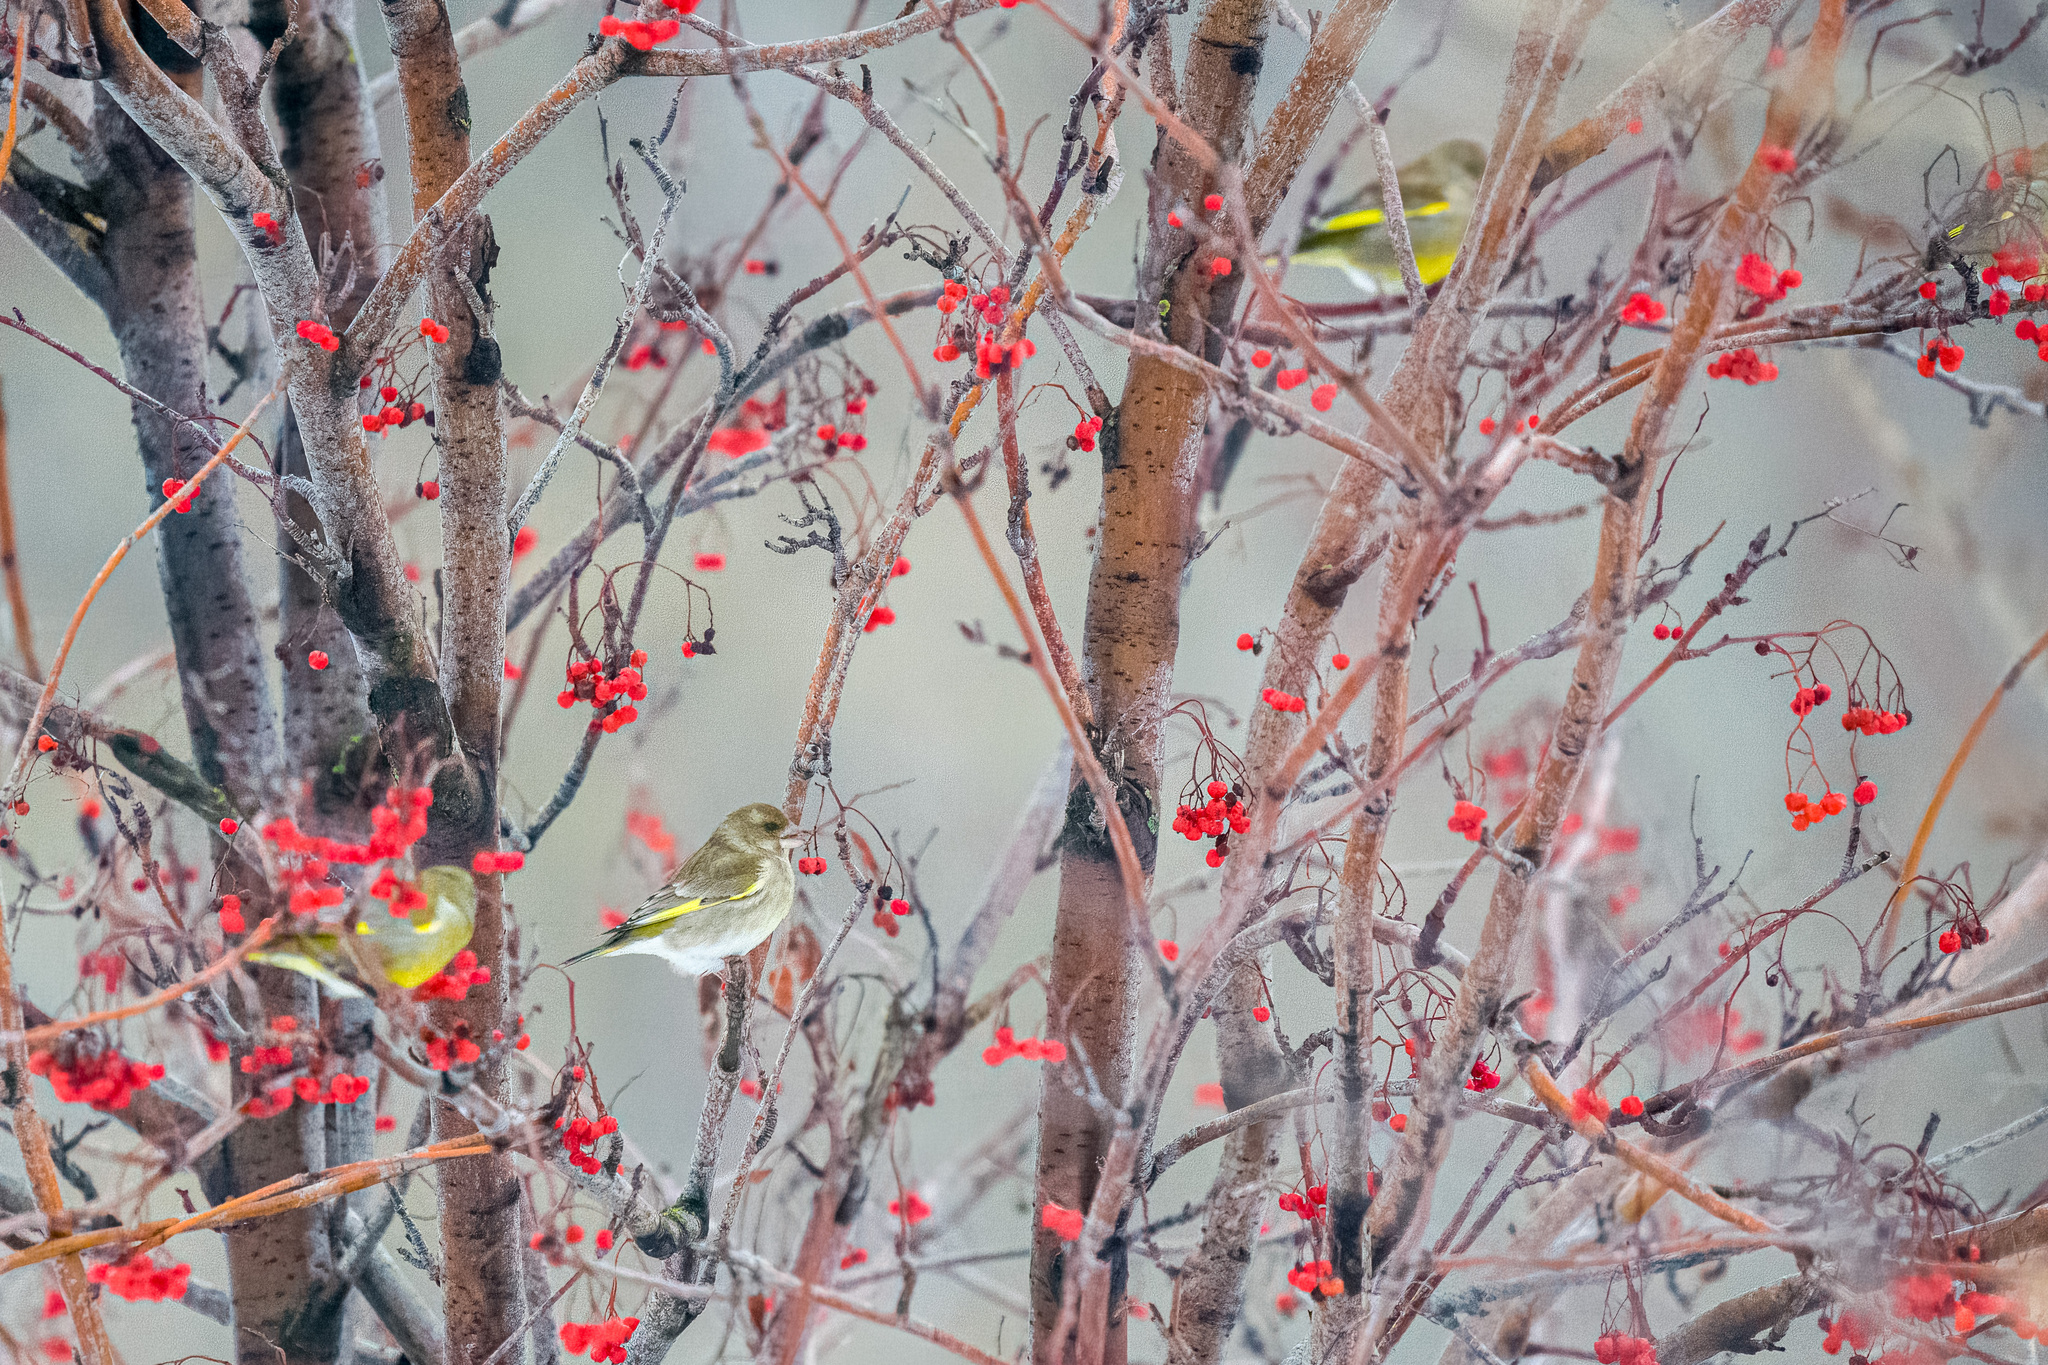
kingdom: Plantae
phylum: Tracheophyta
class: Liliopsida
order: Poales
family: Poaceae
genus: Chloris
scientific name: Chloris chloris
